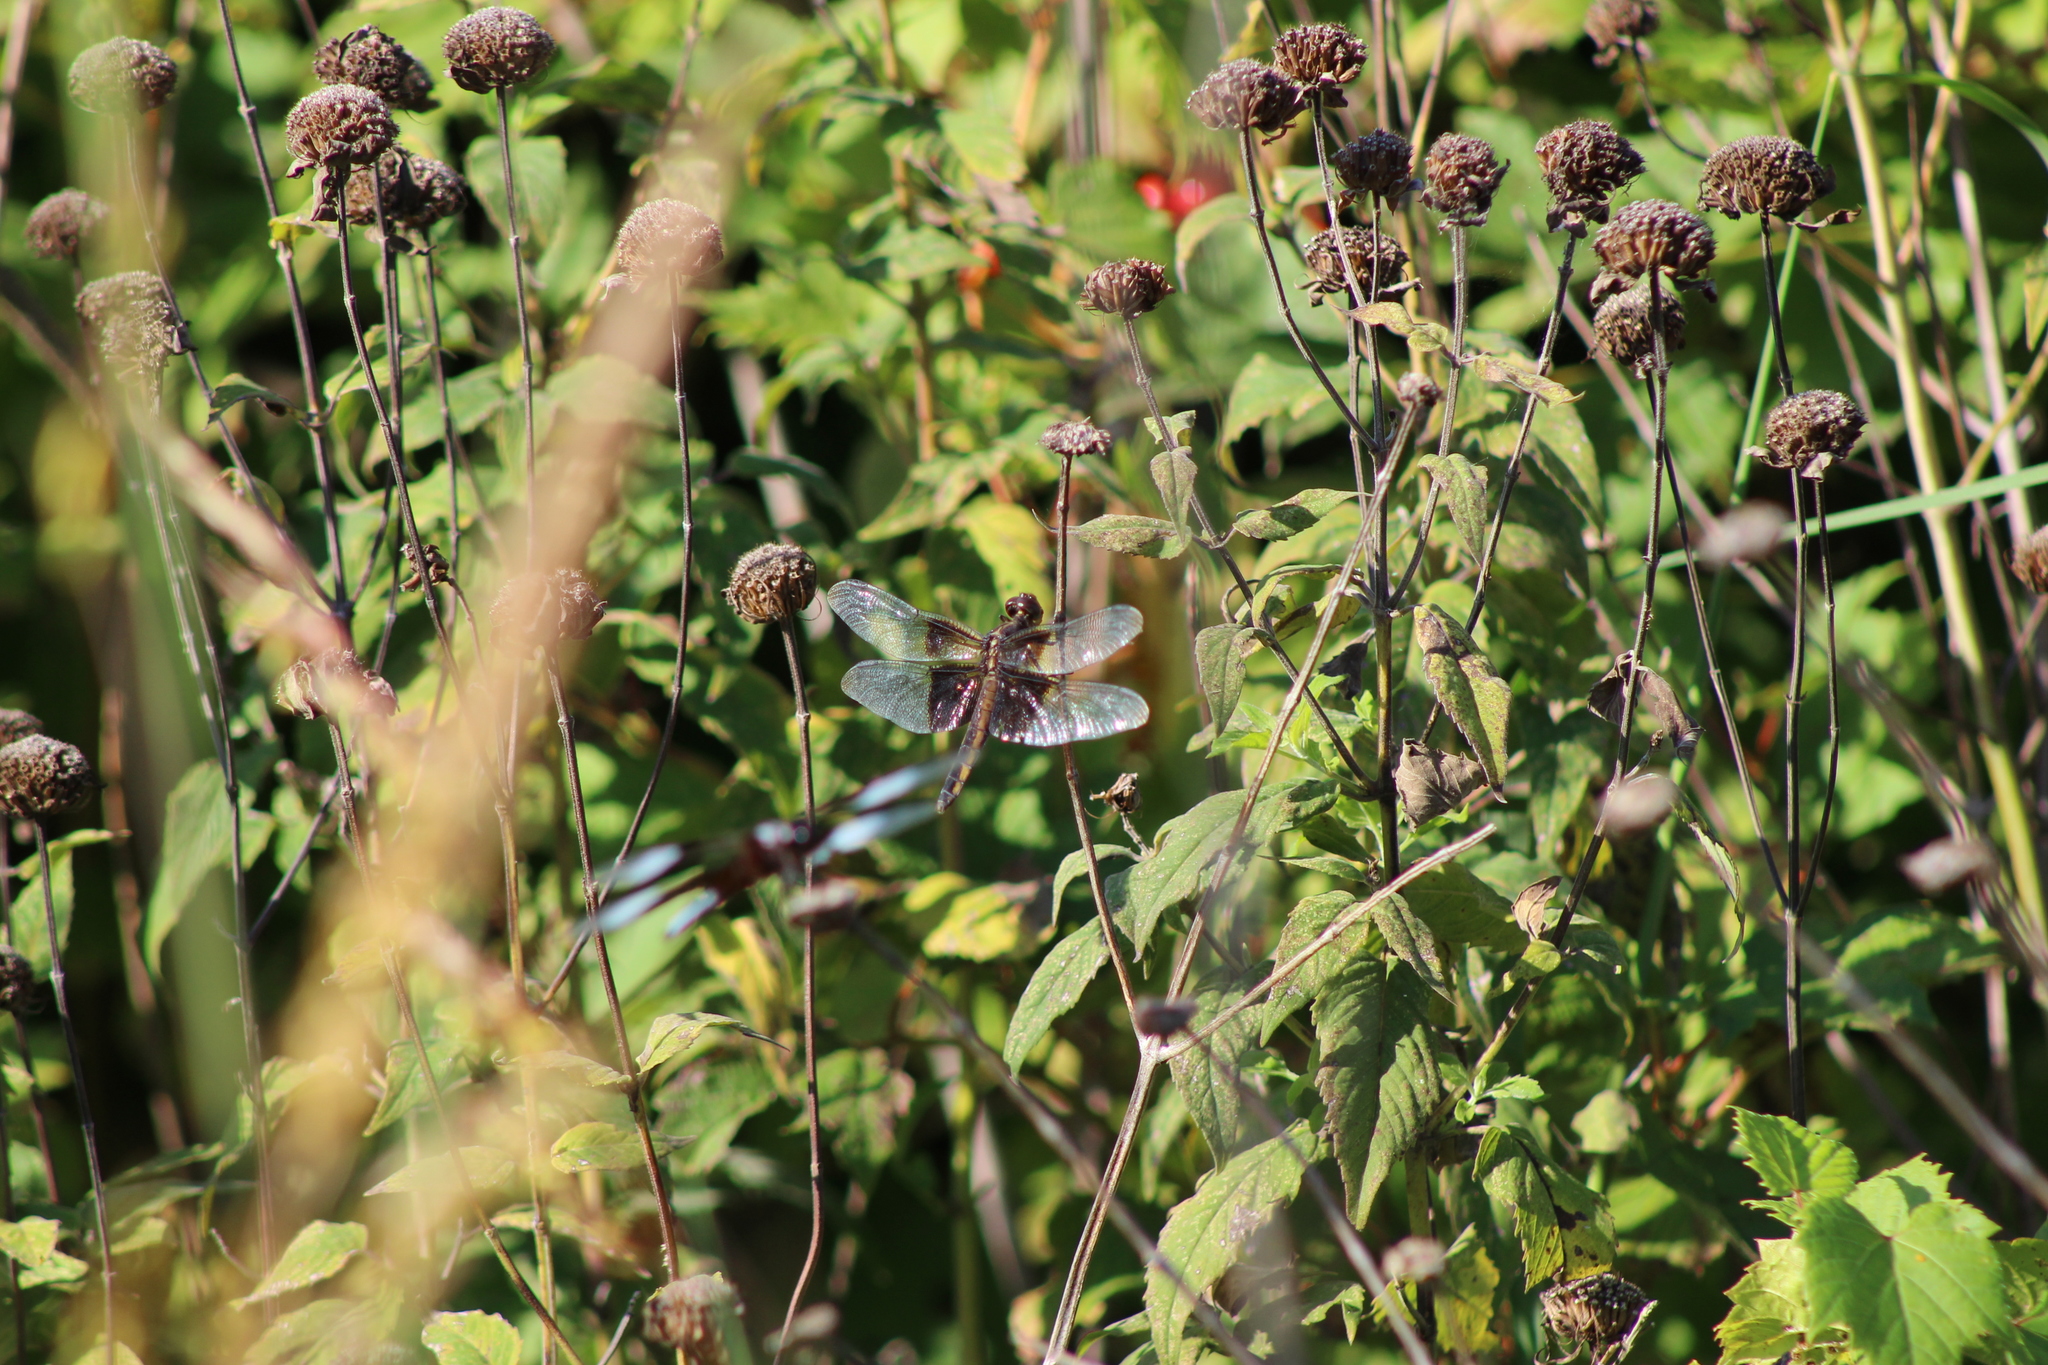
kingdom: Animalia
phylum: Arthropoda
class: Insecta
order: Odonata
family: Libellulidae
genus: Libellula
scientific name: Libellula luctuosa
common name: Widow skimmer
